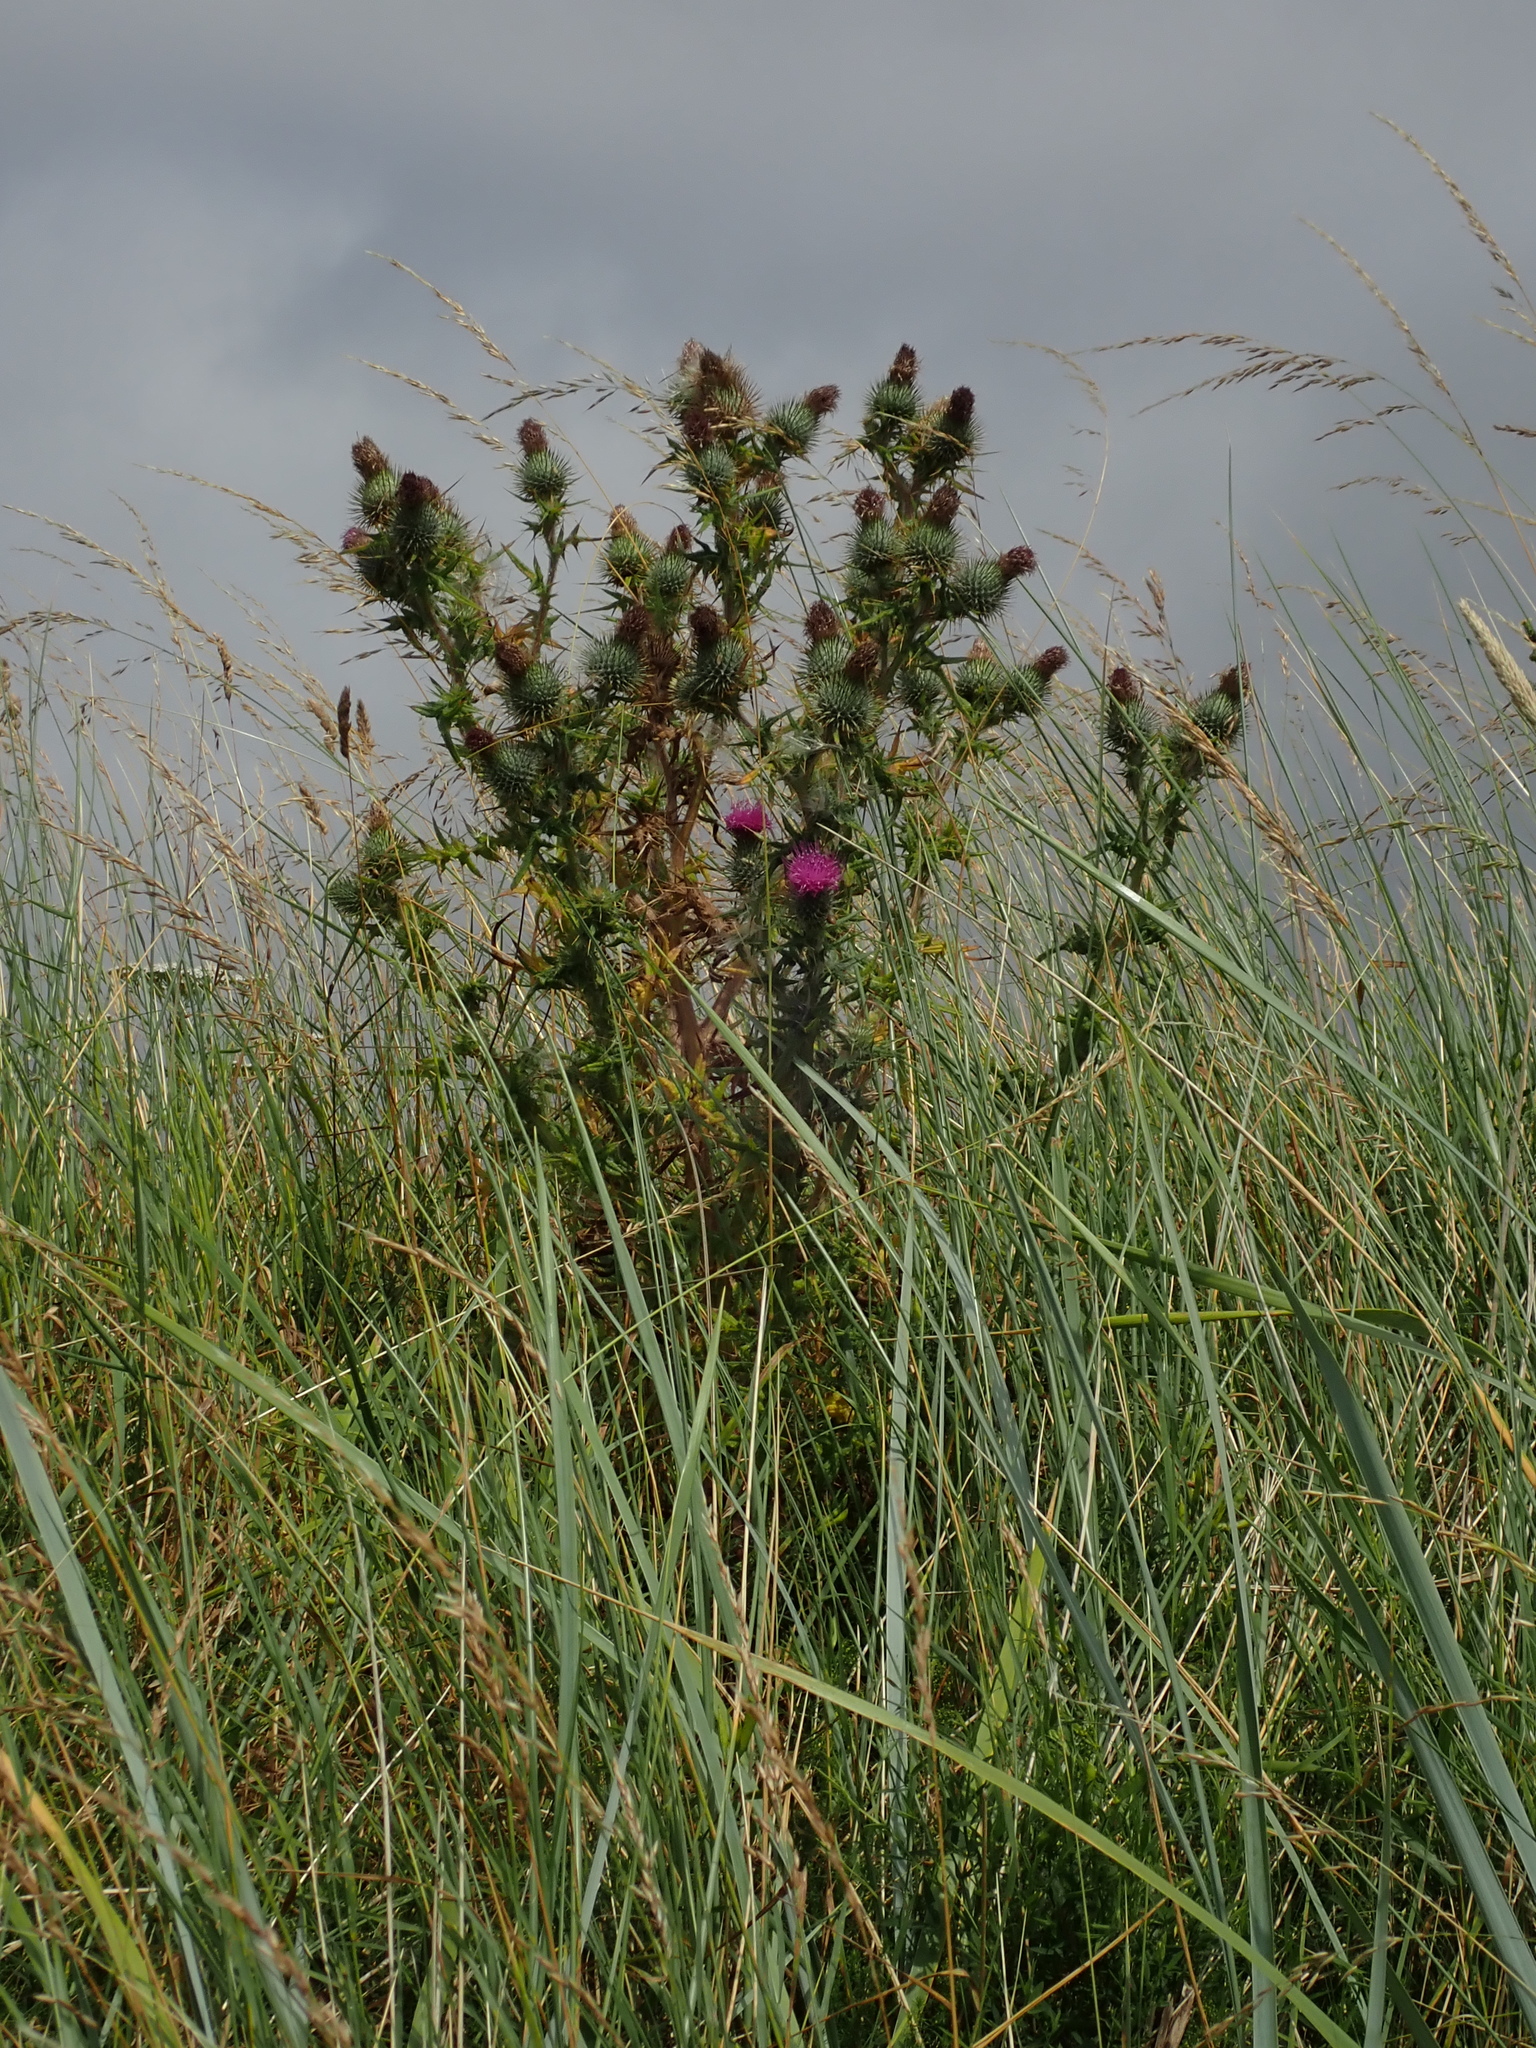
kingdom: Plantae
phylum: Tracheophyta
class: Magnoliopsida
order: Asterales
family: Asteraceae
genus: Cirsium
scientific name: Cirsium vulgare
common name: Bull thistle
